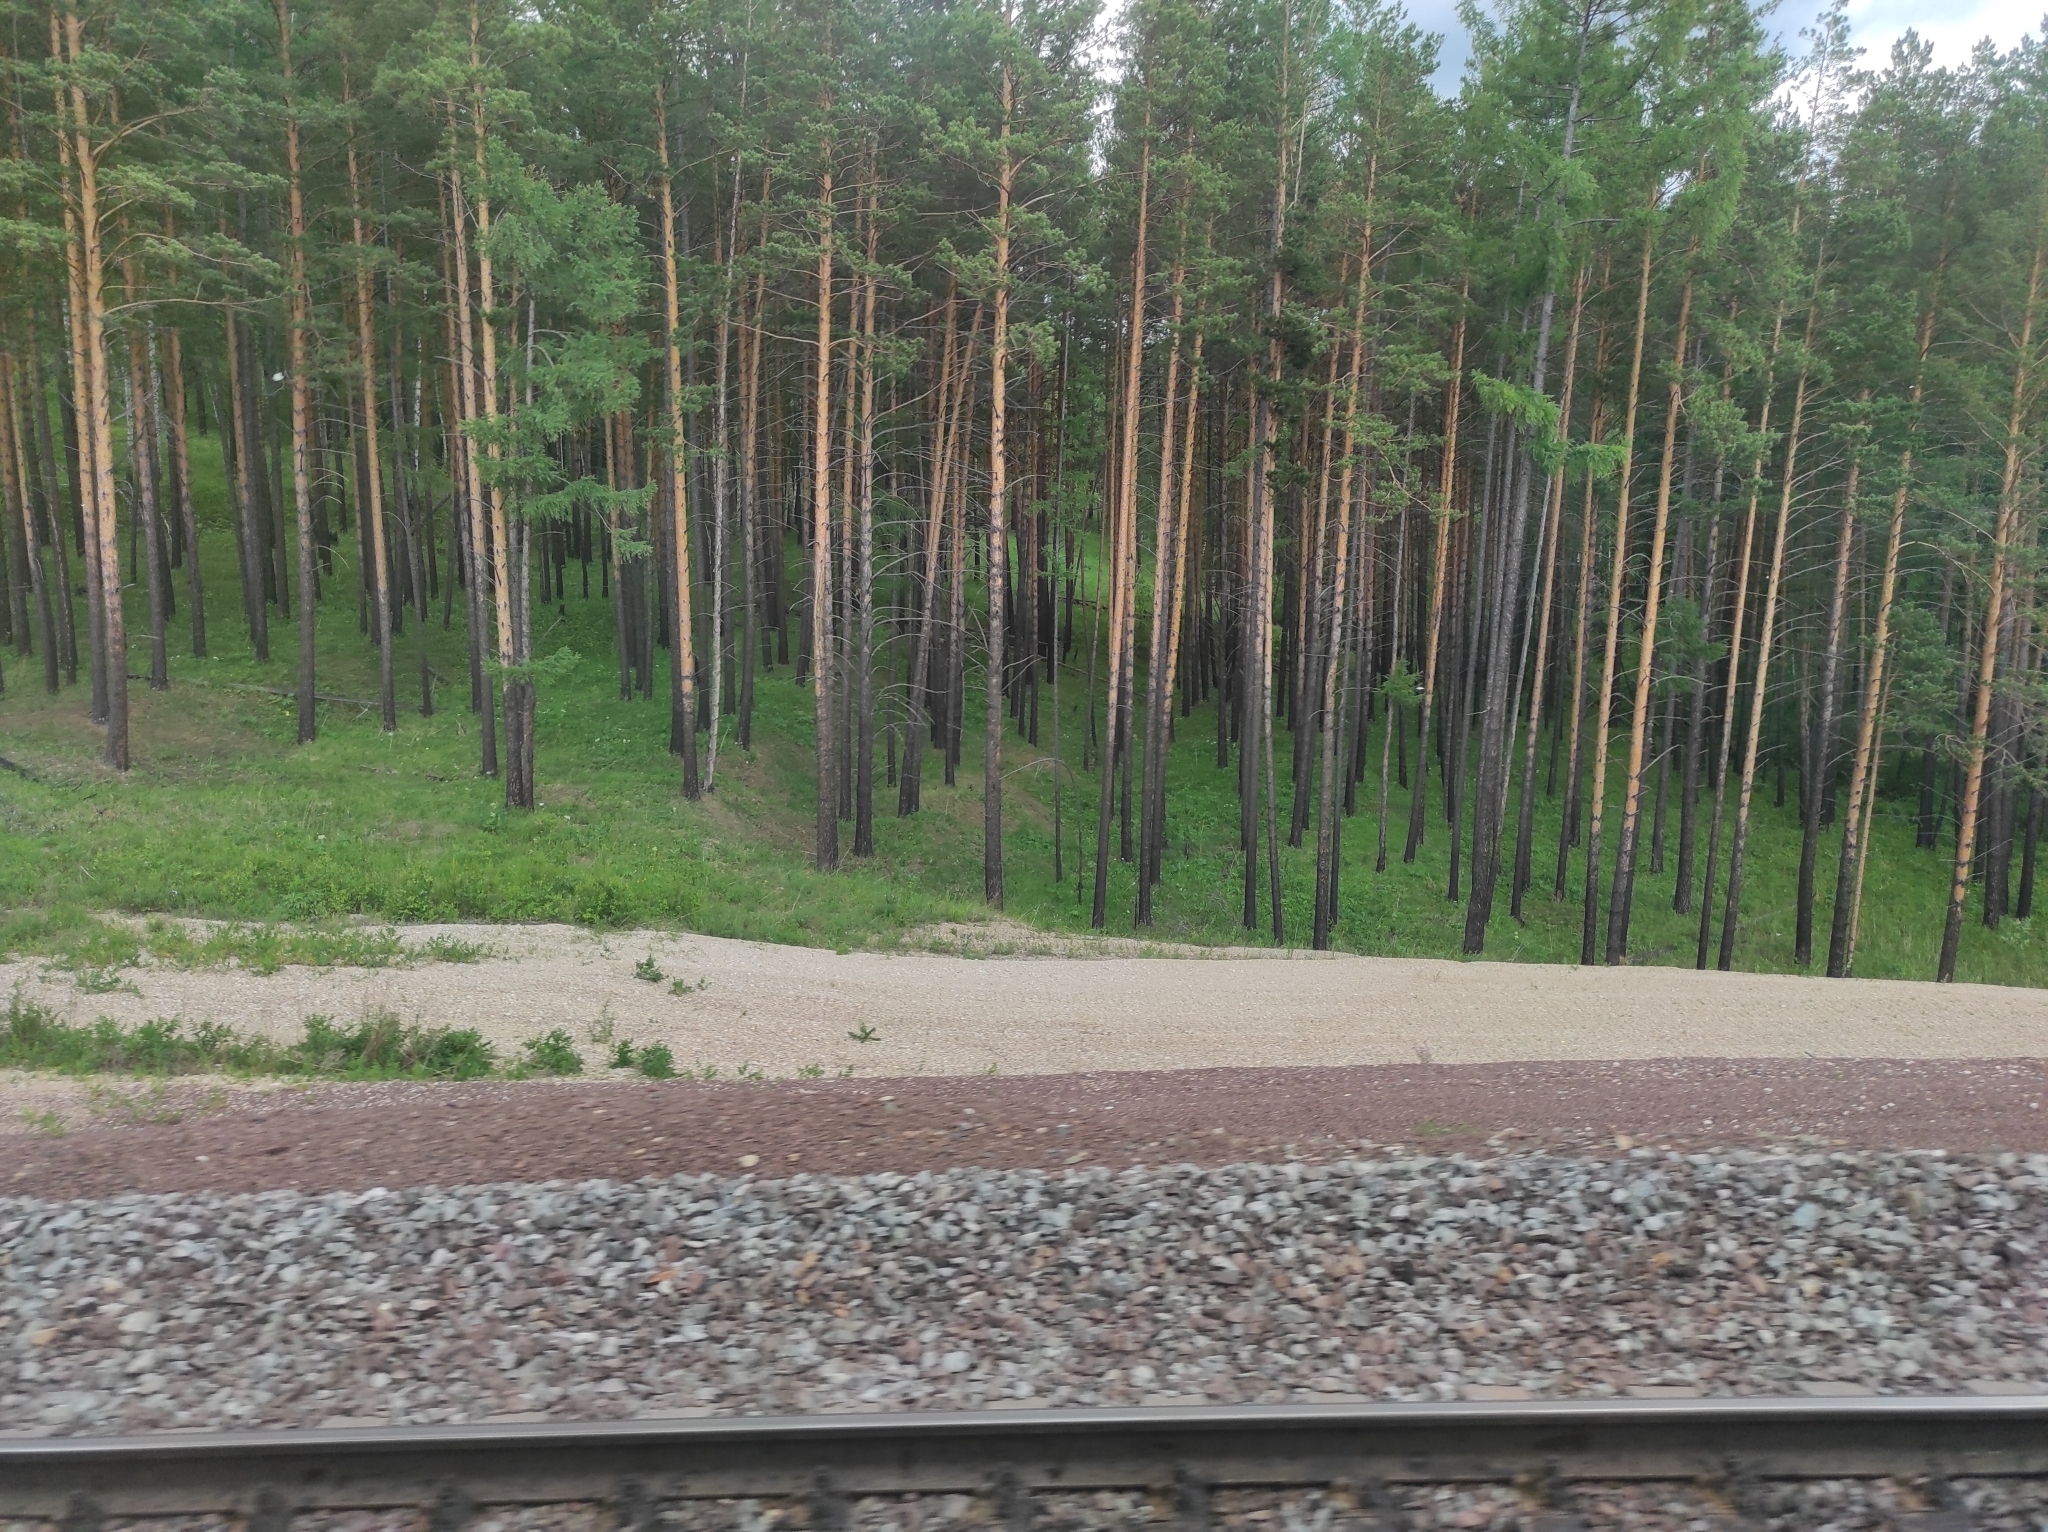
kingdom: Plantae
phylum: Tracheophyta
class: Pinopsida
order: Pinales
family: Pinaceae
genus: Pinus
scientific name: Pinus sylvestris
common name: Scots pine
